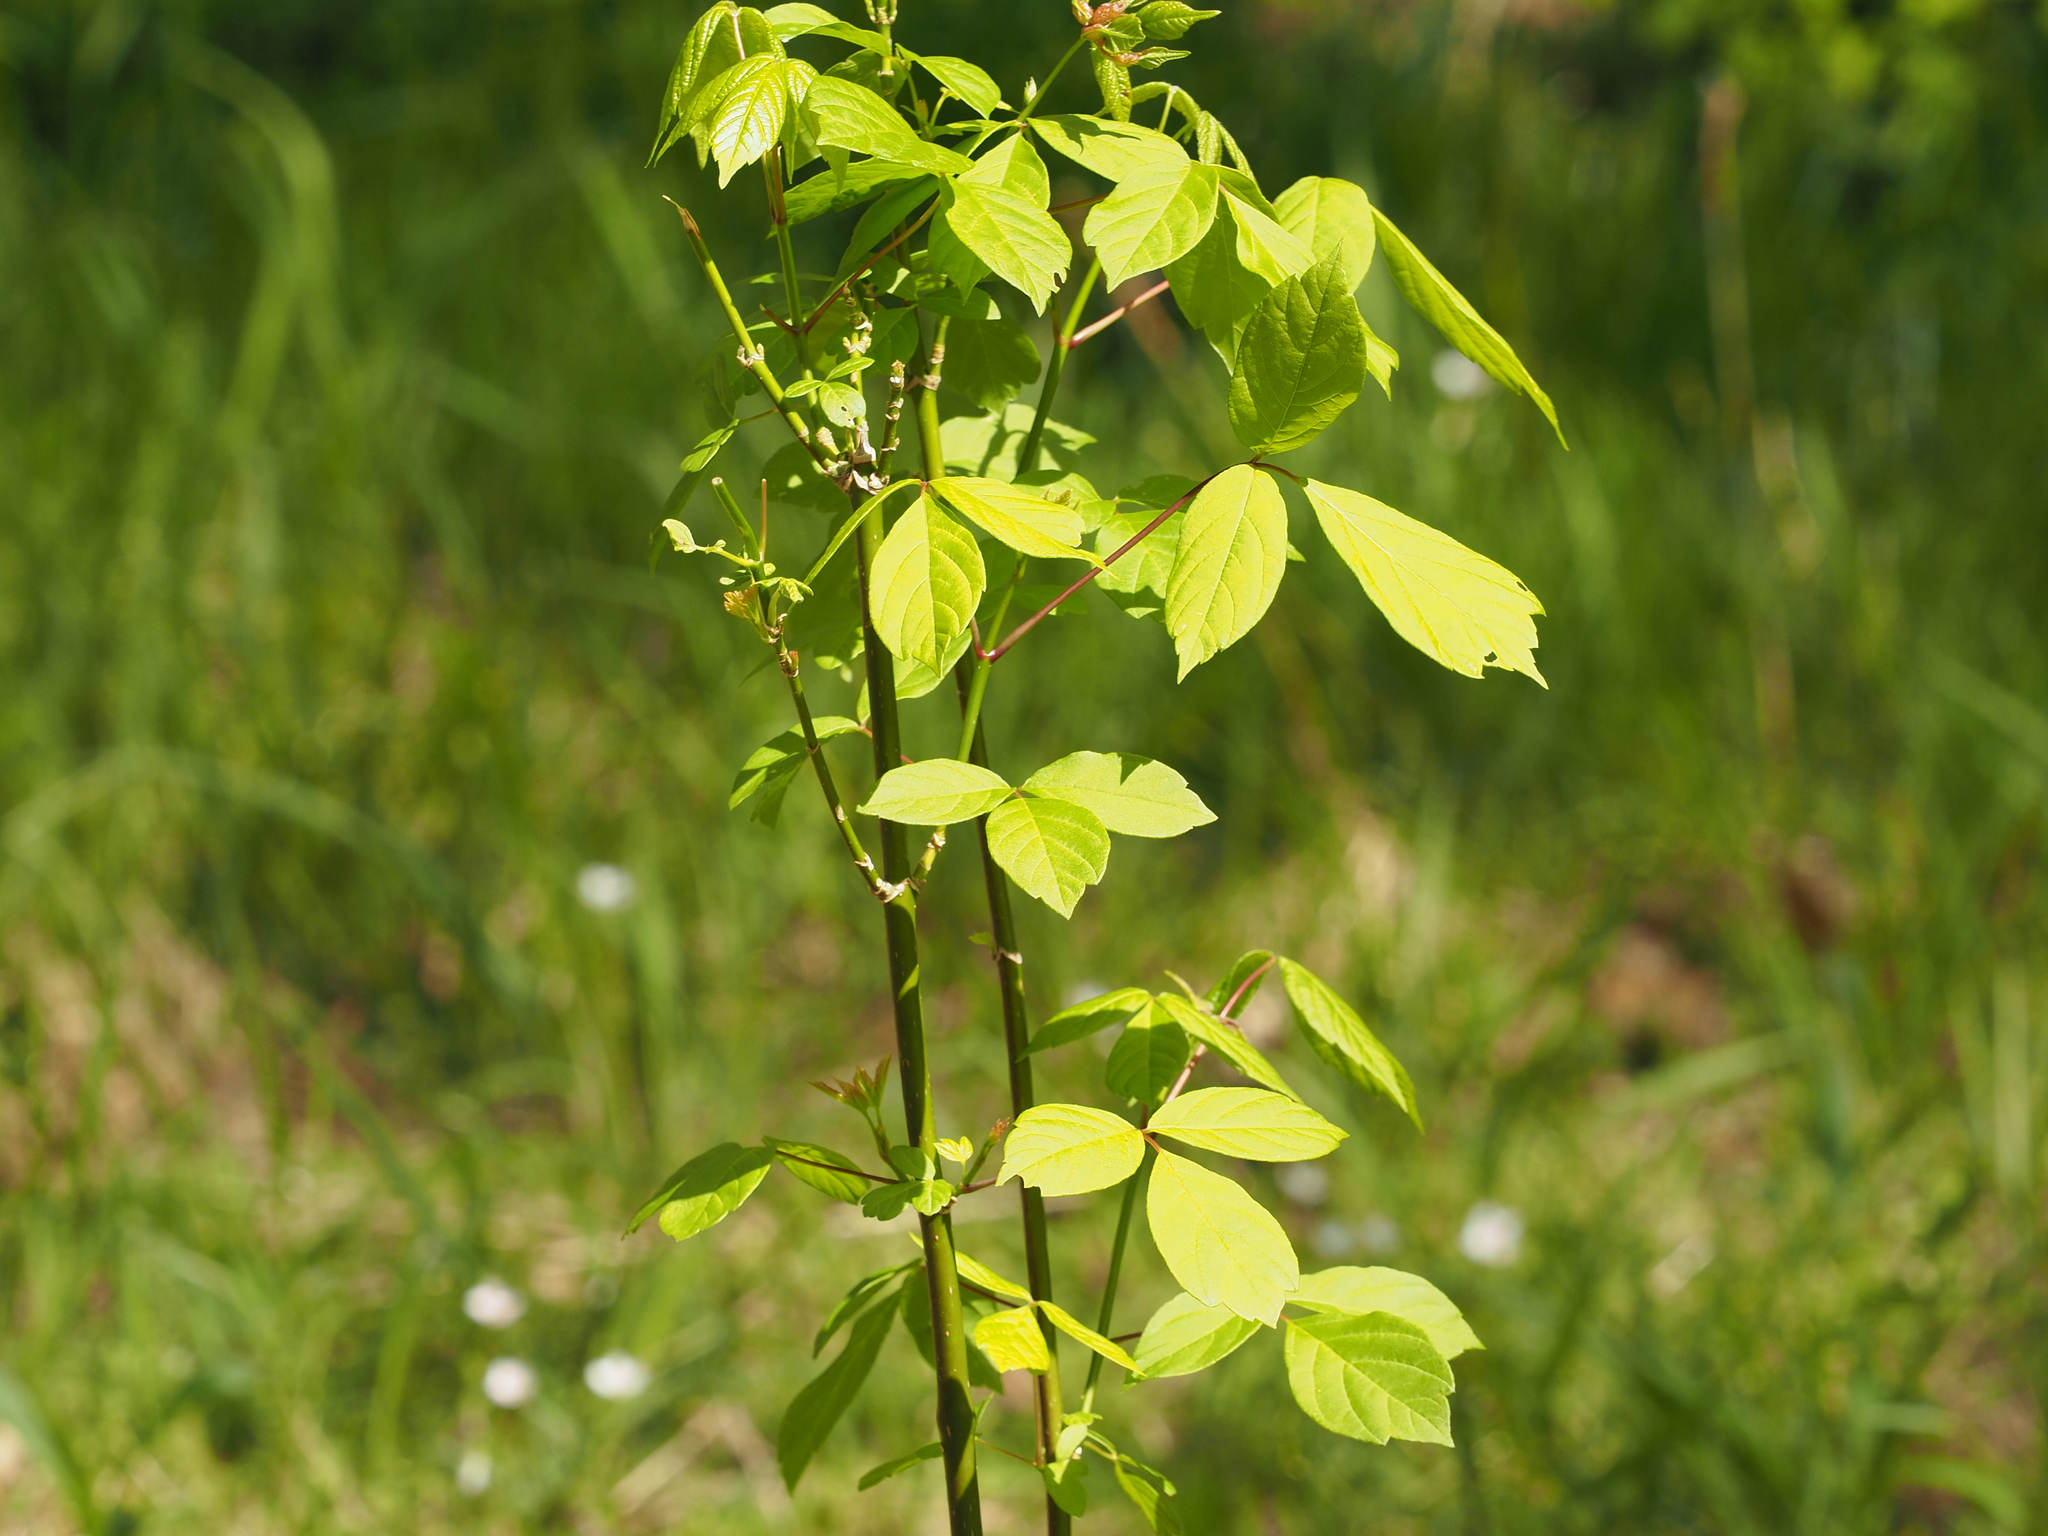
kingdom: Plantae
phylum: Tracheophyta
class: Magnoliopsida
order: Sapindales
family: Sapindaceae
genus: Acer
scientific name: Acer negundo
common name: Ashleaf maple
